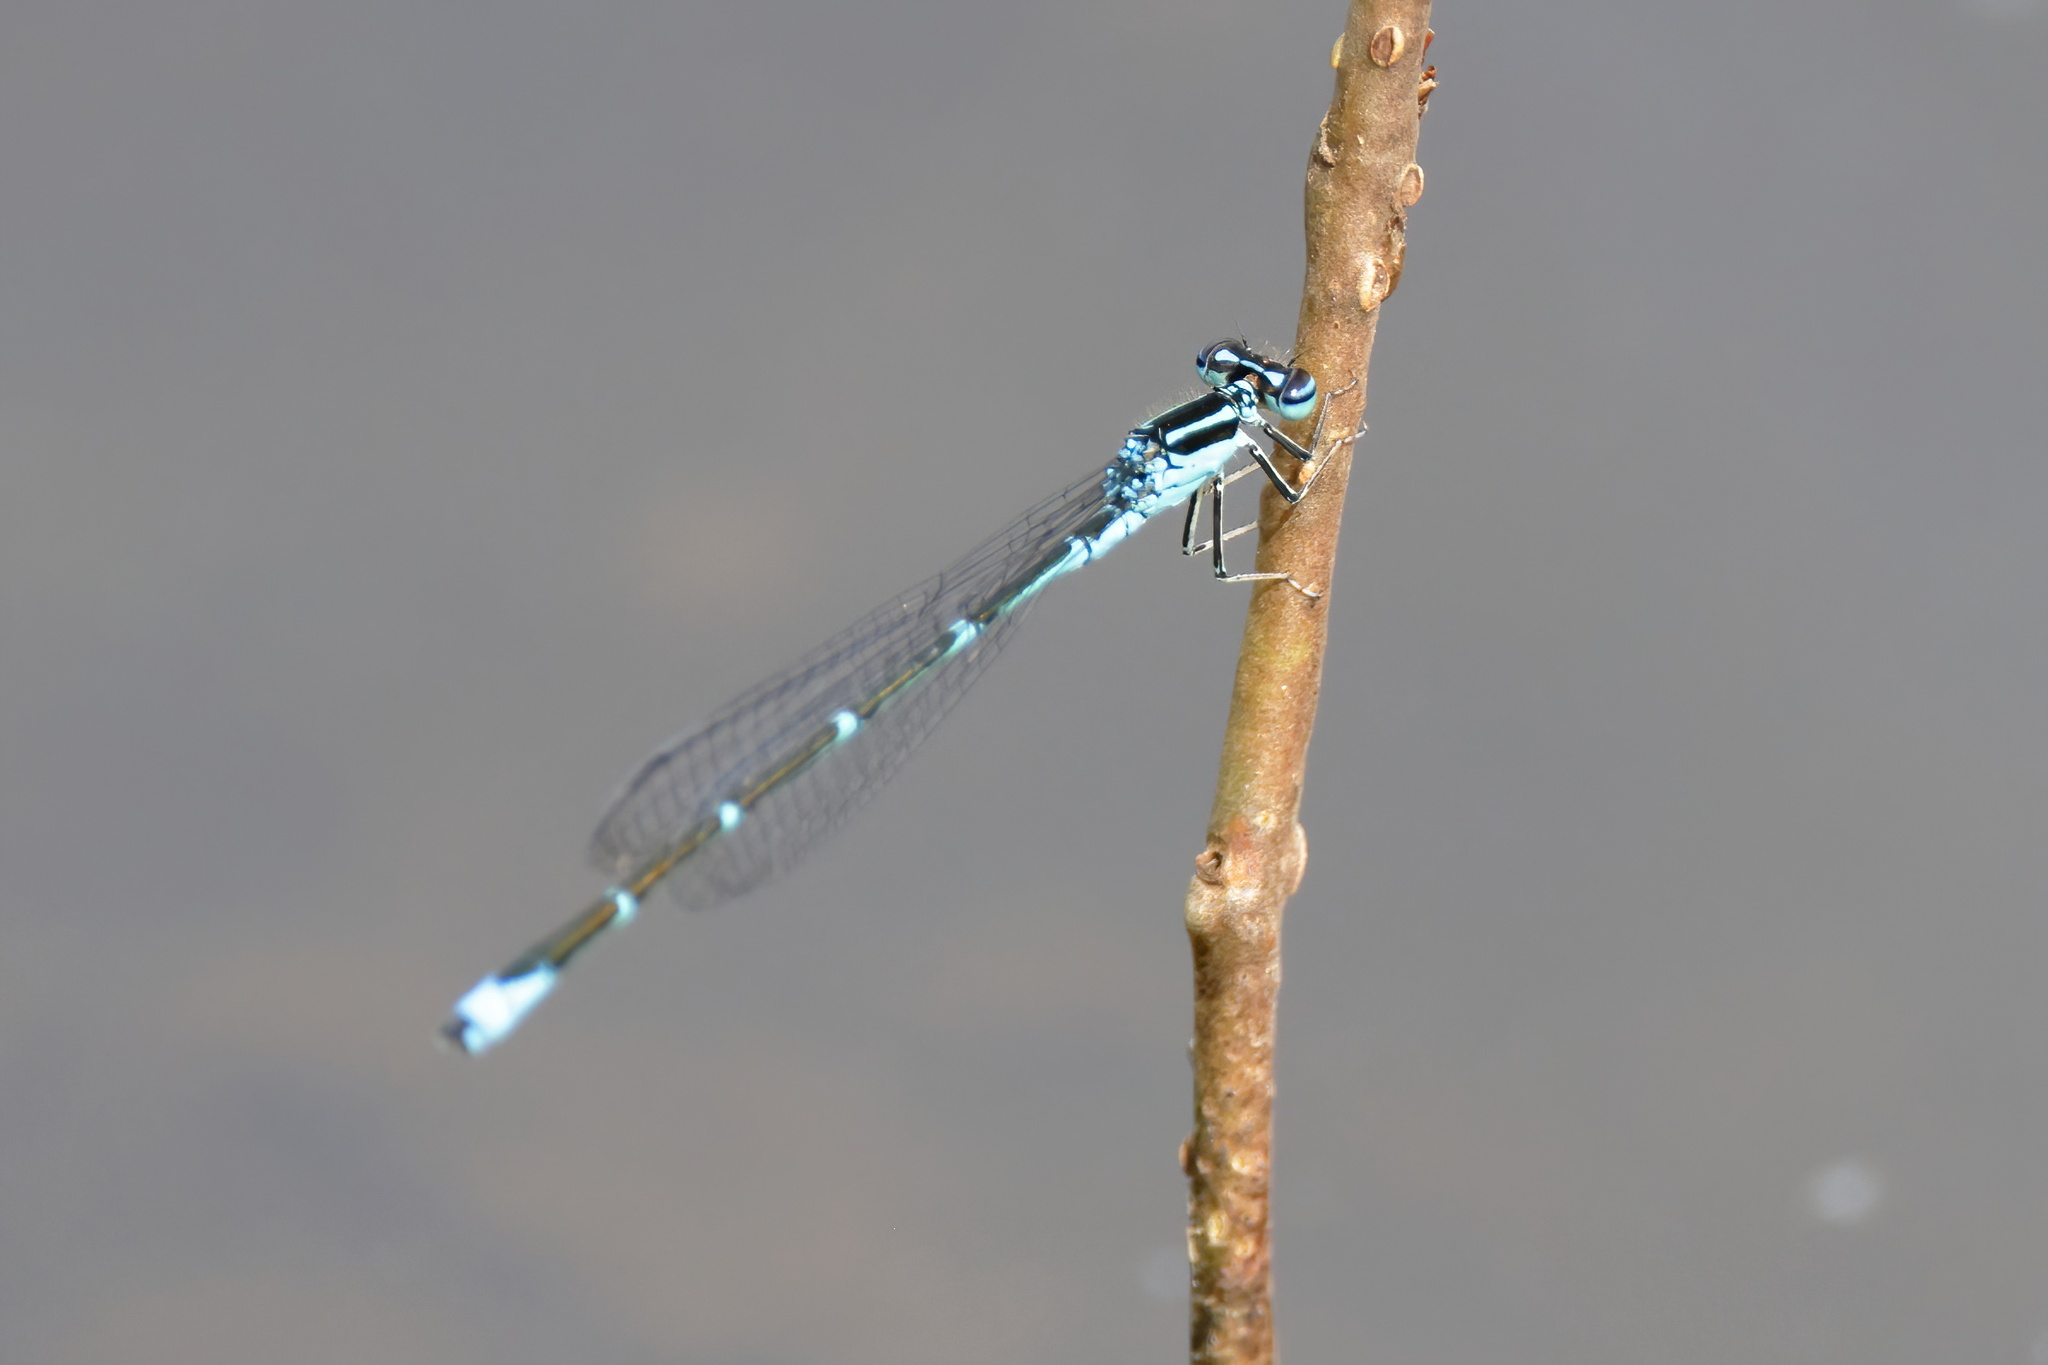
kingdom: Animalia
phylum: Arthropoda
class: Insecta
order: Odonata
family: Coenagrionidae
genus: Enallagma
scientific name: Enallagma exsulans
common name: Stream bluet
